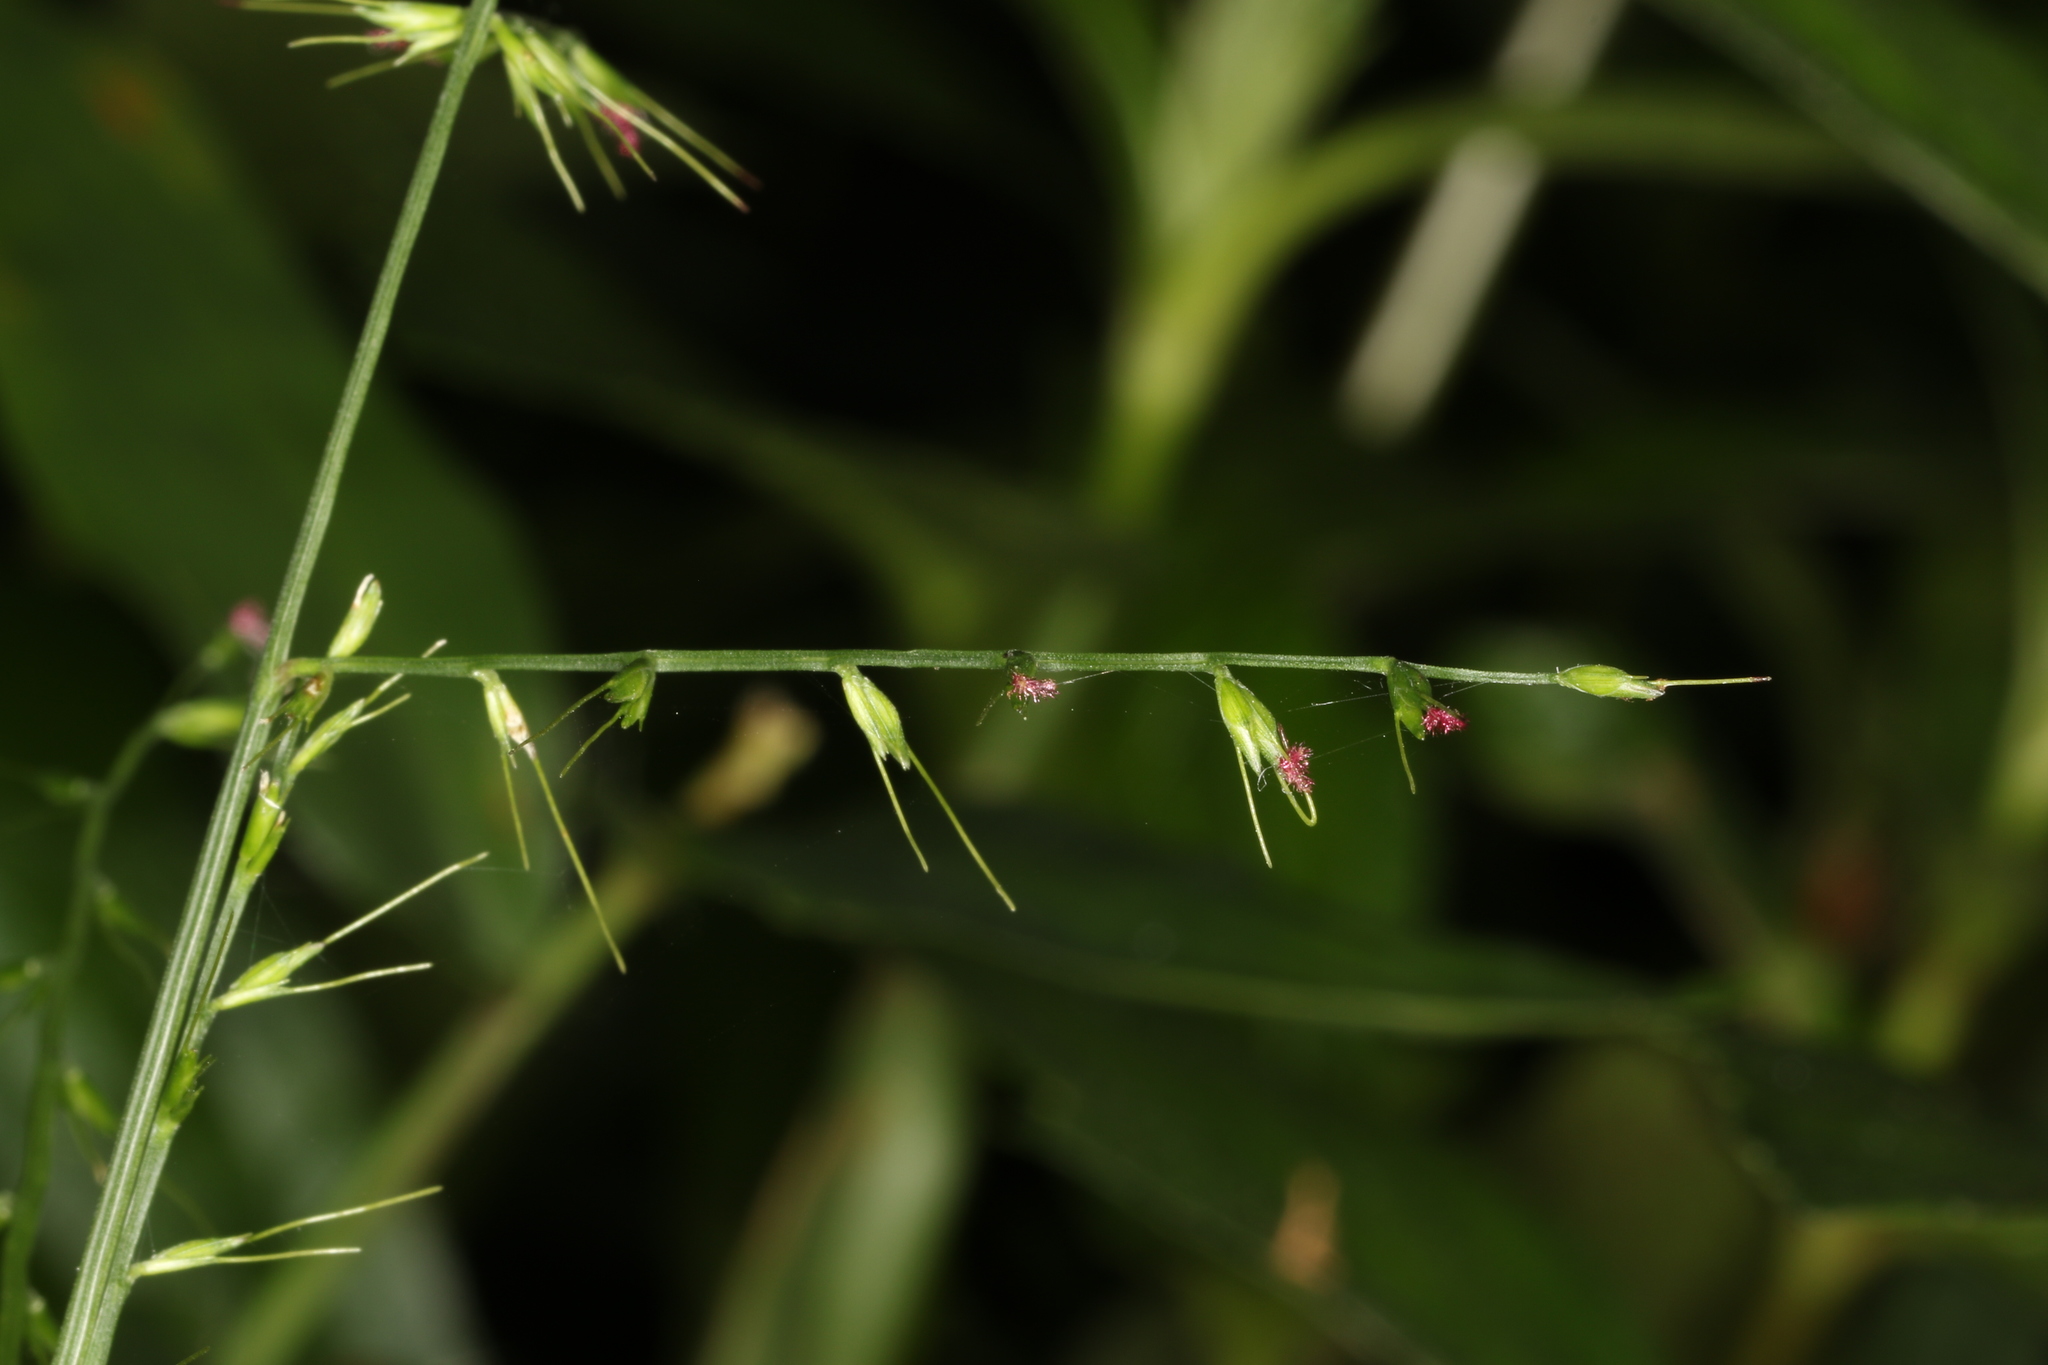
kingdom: Plantae
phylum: Tracheophyta
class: Liliopsida
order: Poales
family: Poaceae
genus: Oplismenus
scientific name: Oplismenus compositus
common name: Running mountain grass
